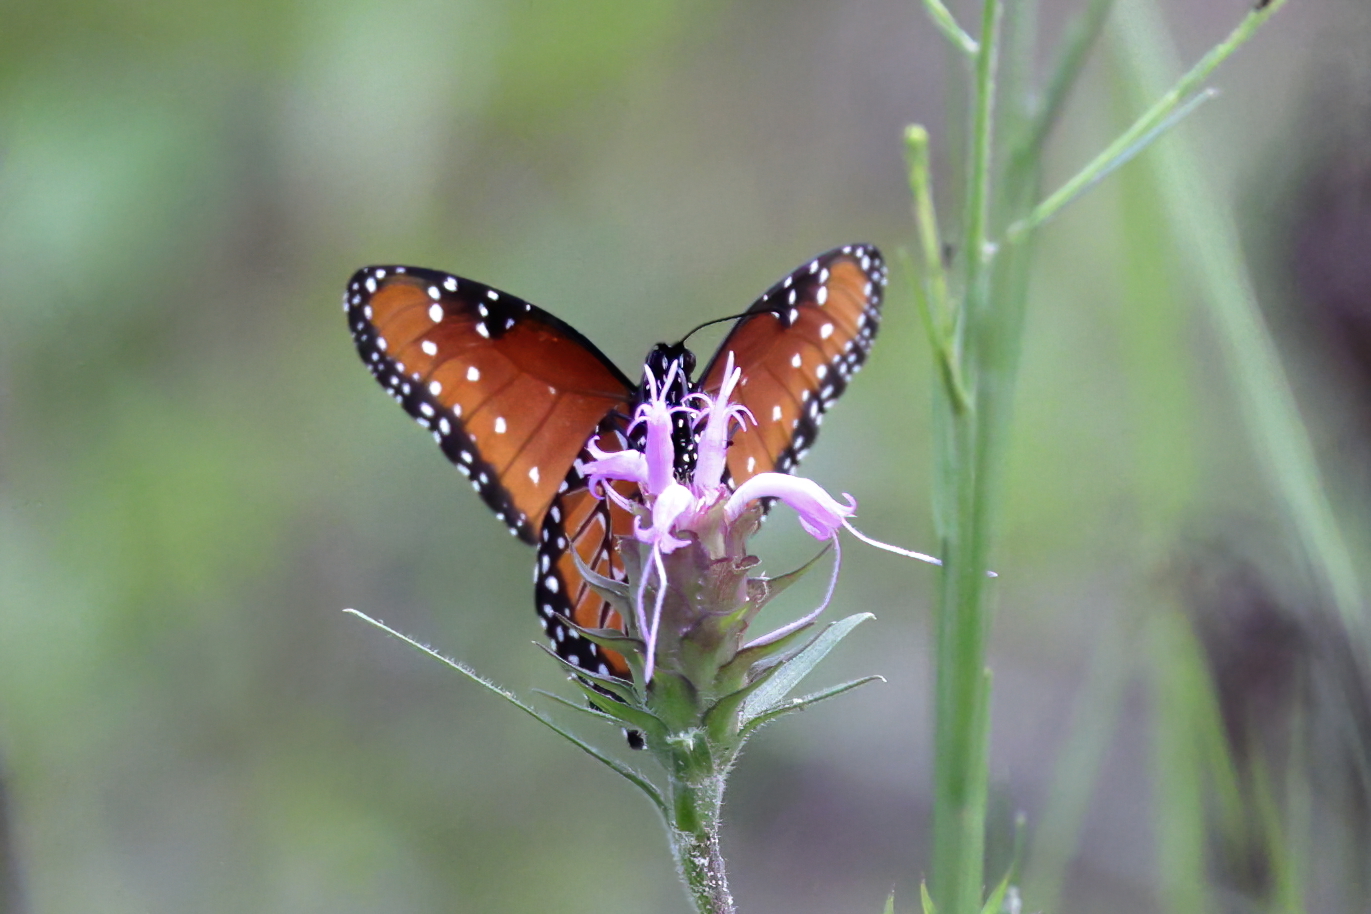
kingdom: Animalia
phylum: Arthropoda
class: Insecta
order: Lepidoptera
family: Nymphalidae
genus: Danaus
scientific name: Danaus gilippus
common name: Queen
